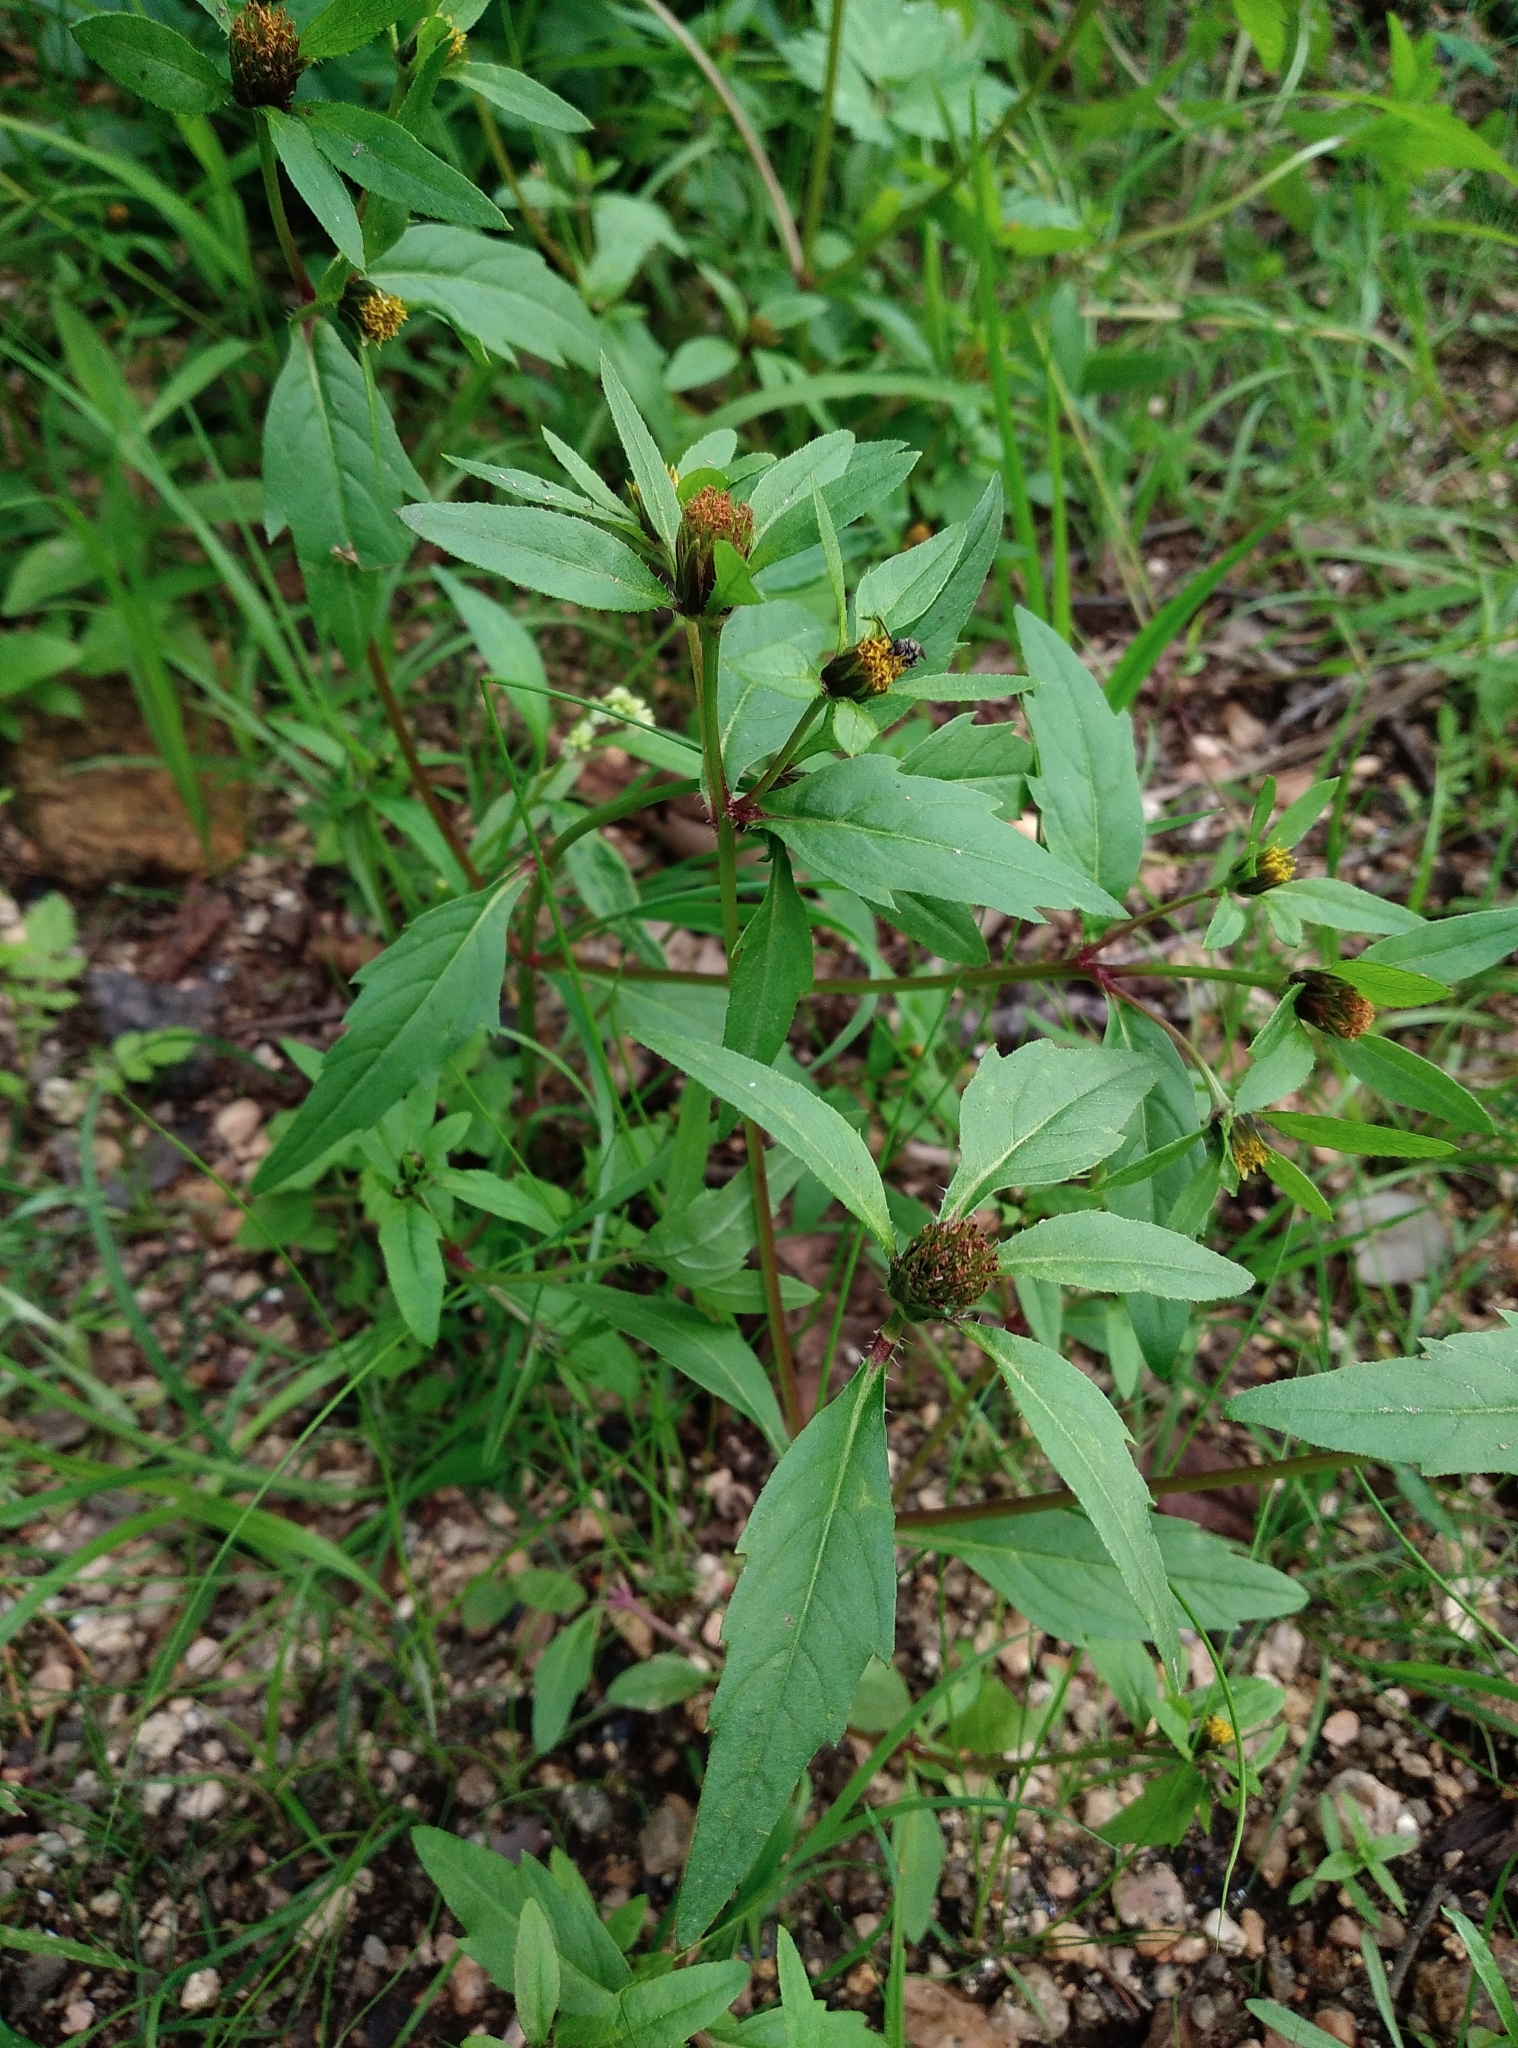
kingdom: Plantae
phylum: Tracheophyta
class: Magnoliopsida
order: Asterales
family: Asteraceae
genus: Bidens
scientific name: Bidens tripartita
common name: Trifid bur-marigold
